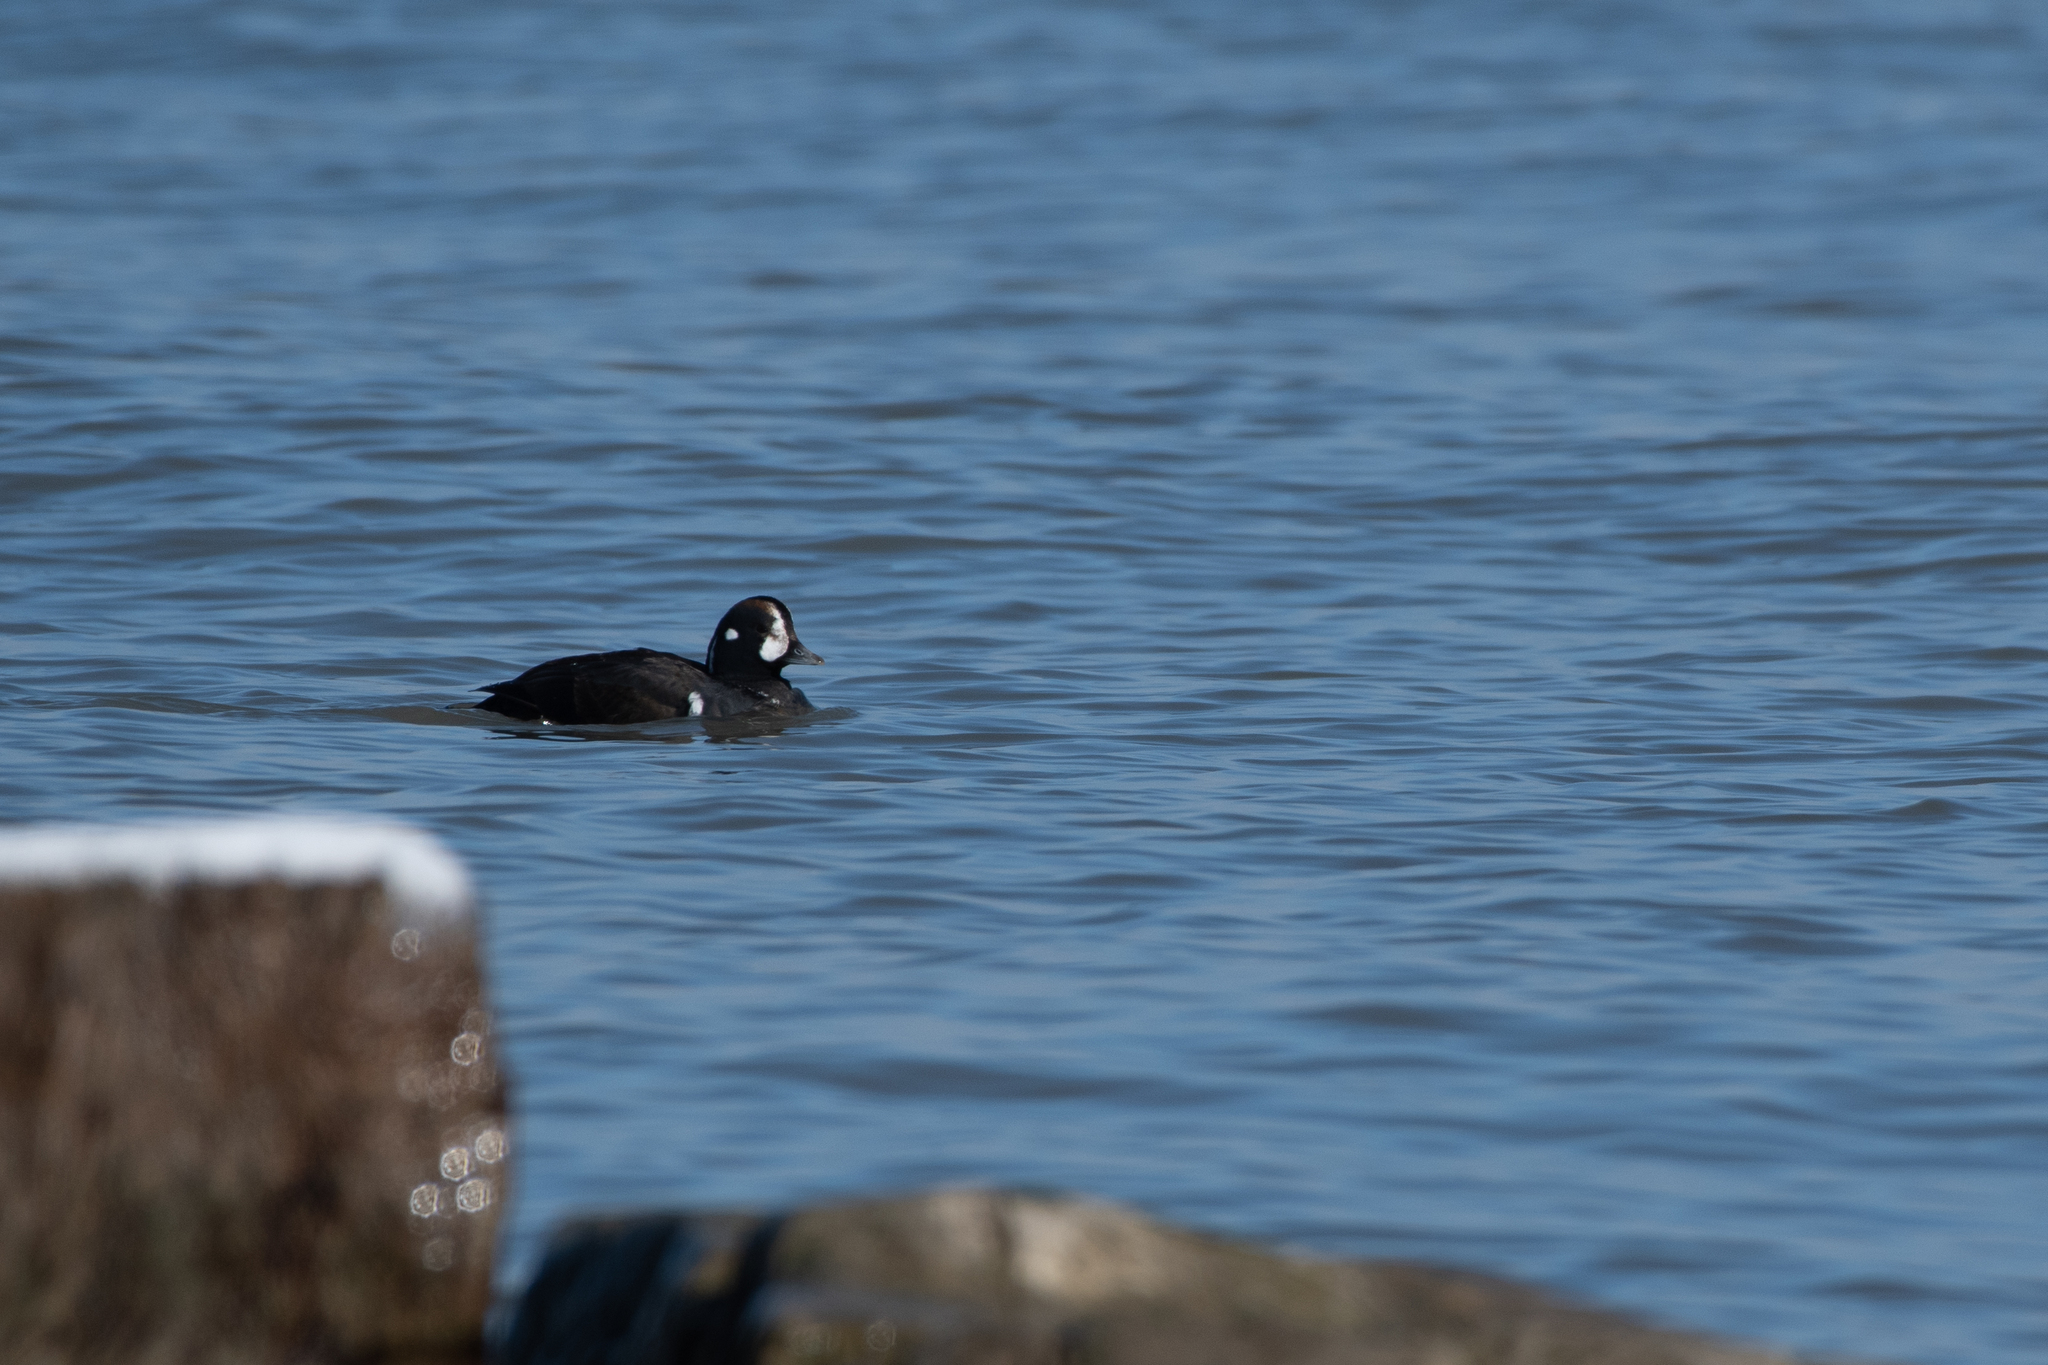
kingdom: Animalia
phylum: Chordata
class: Aves
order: Anseriformes
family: Anatidae
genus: Histrionicus
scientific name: Histrionicus histrionicus
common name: Harlequin duck
